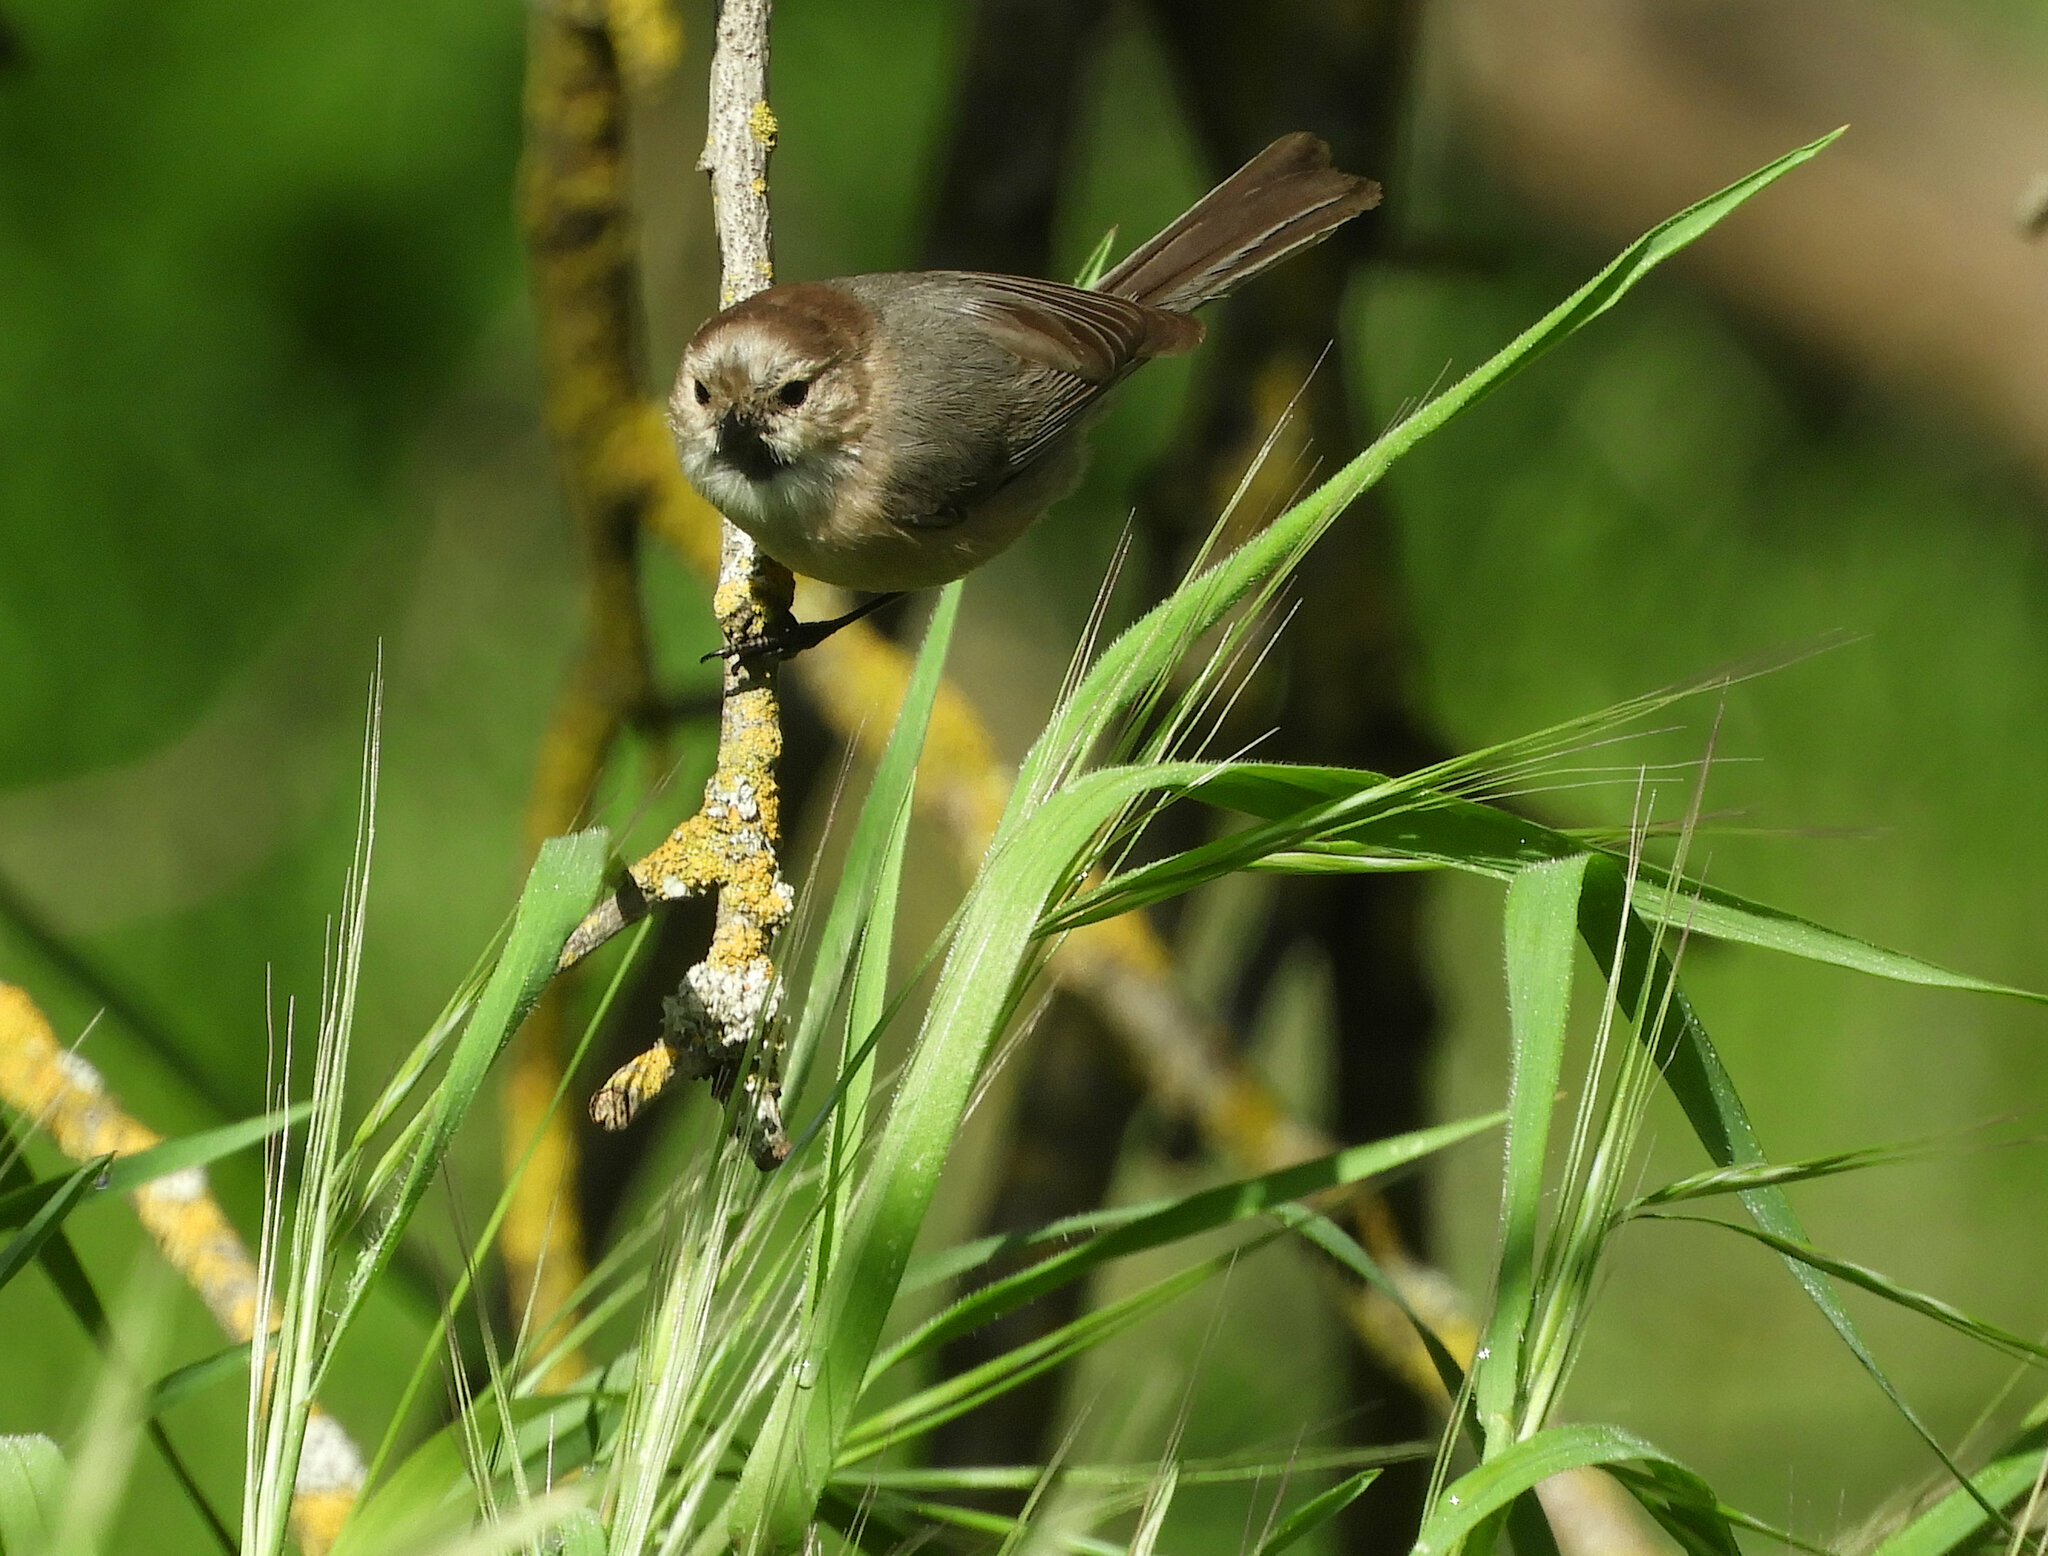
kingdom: Animalia
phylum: Chordata
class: Aves
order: Passeriformes
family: Aegithalidae
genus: Psaltriparus
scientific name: Psaltriparus minimus
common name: American bushtit
